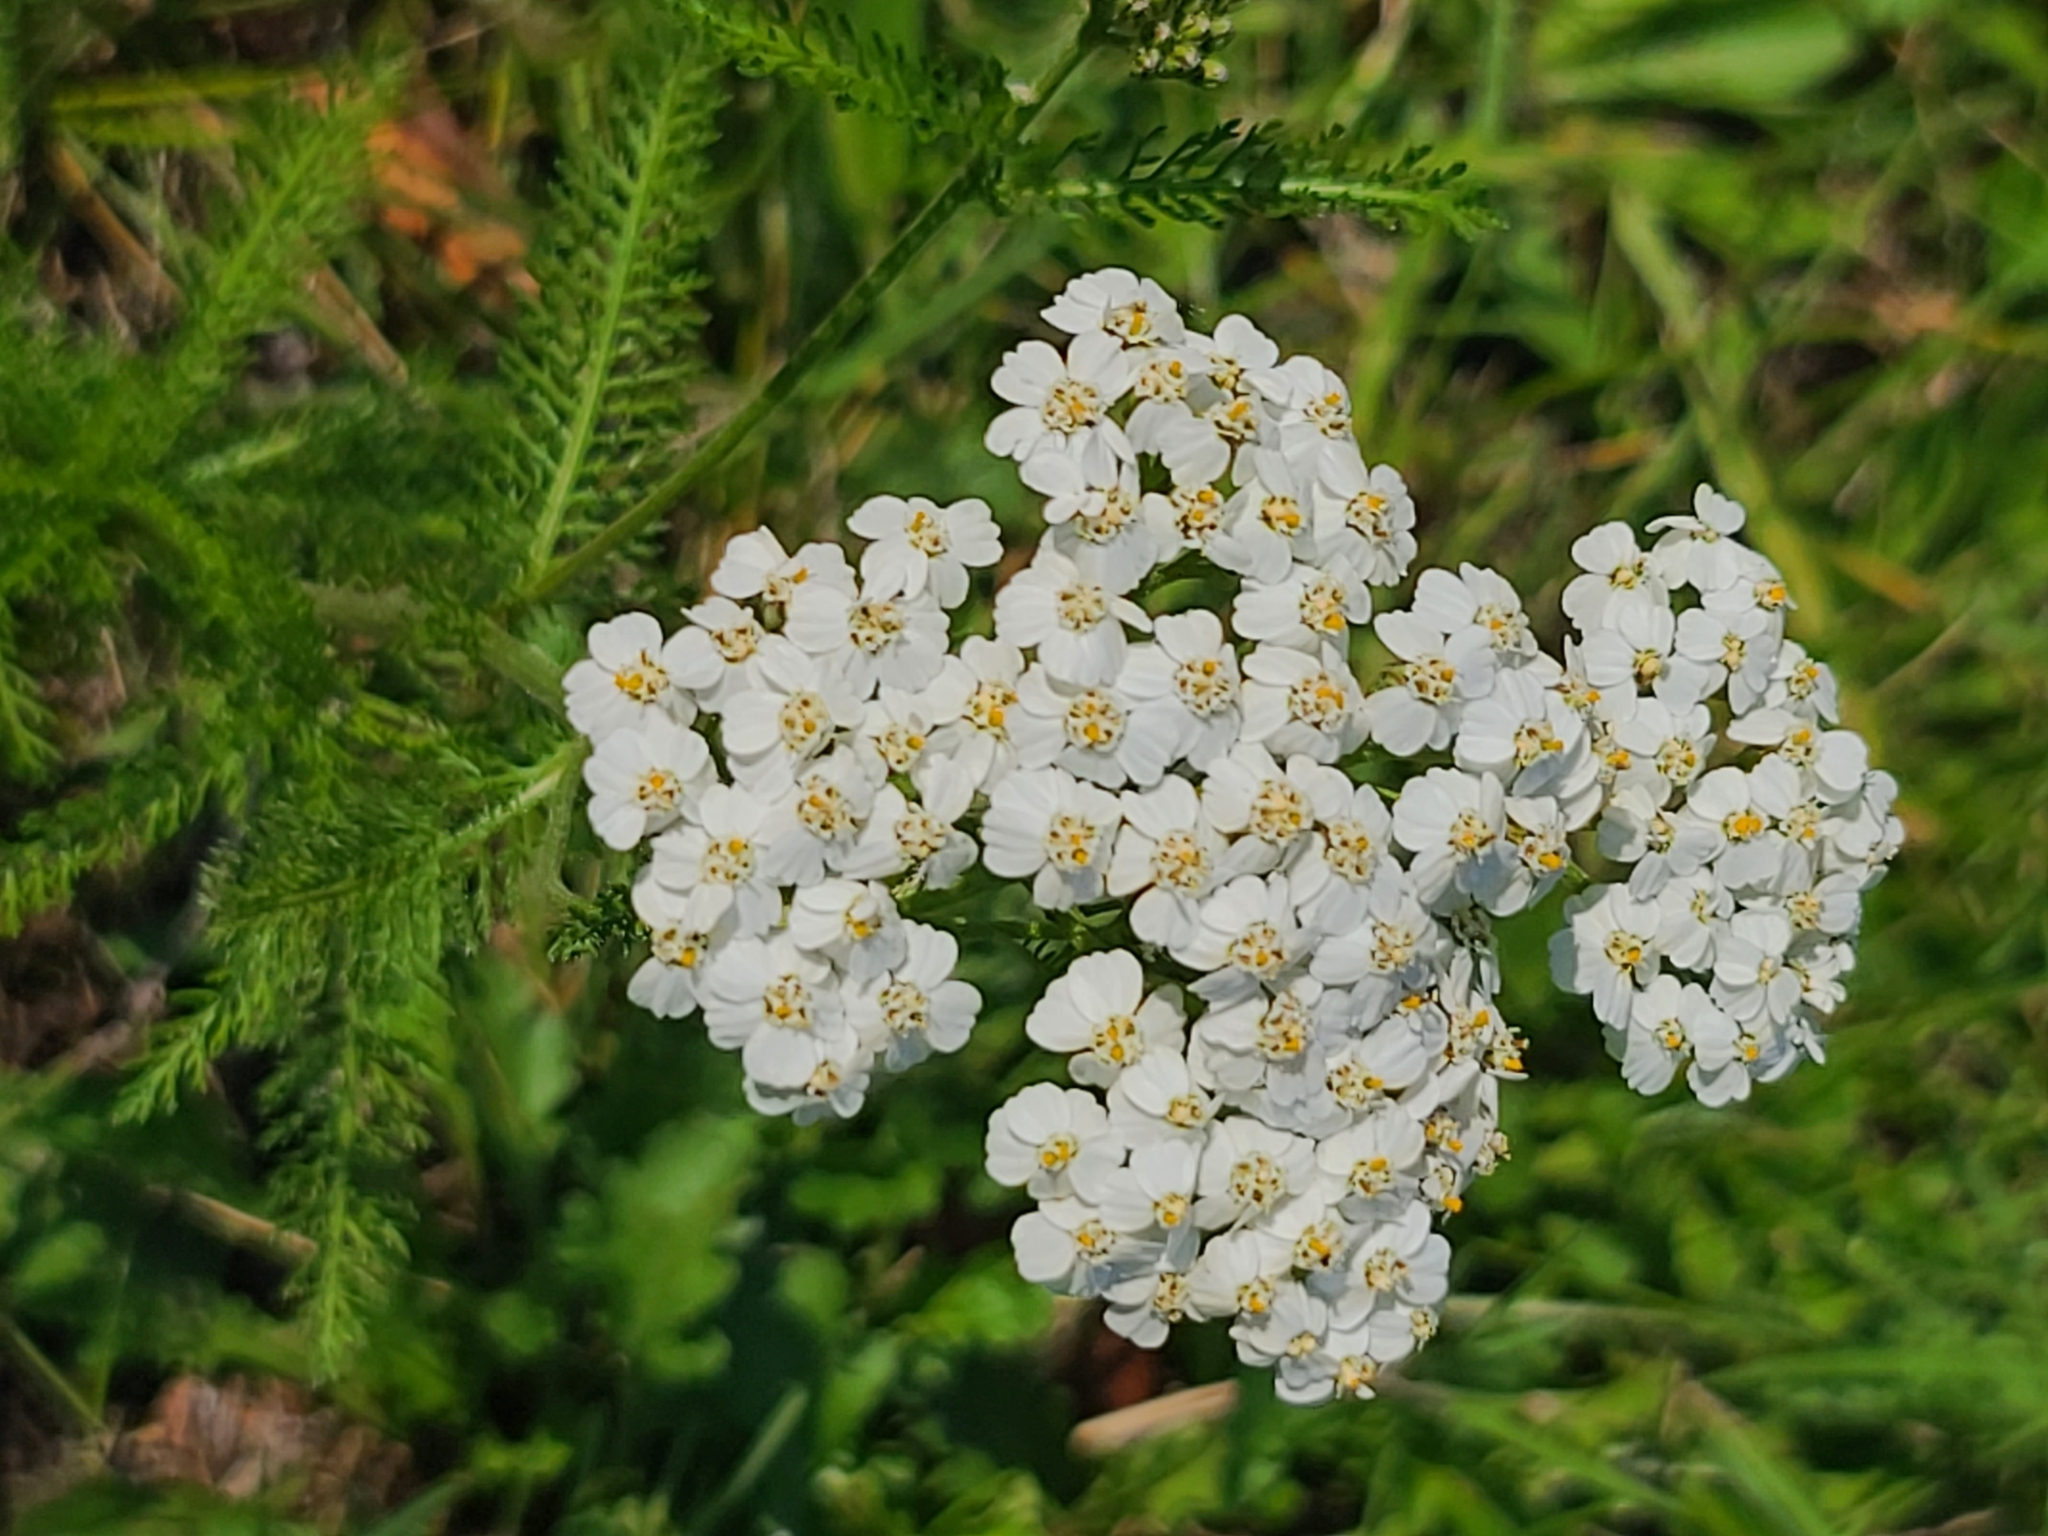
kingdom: Plantae
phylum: Tracheophyta
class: Magnoliopsida
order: Asterales
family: Asteraceae
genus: Achillea
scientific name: Achillea millefolium
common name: Yarrow
